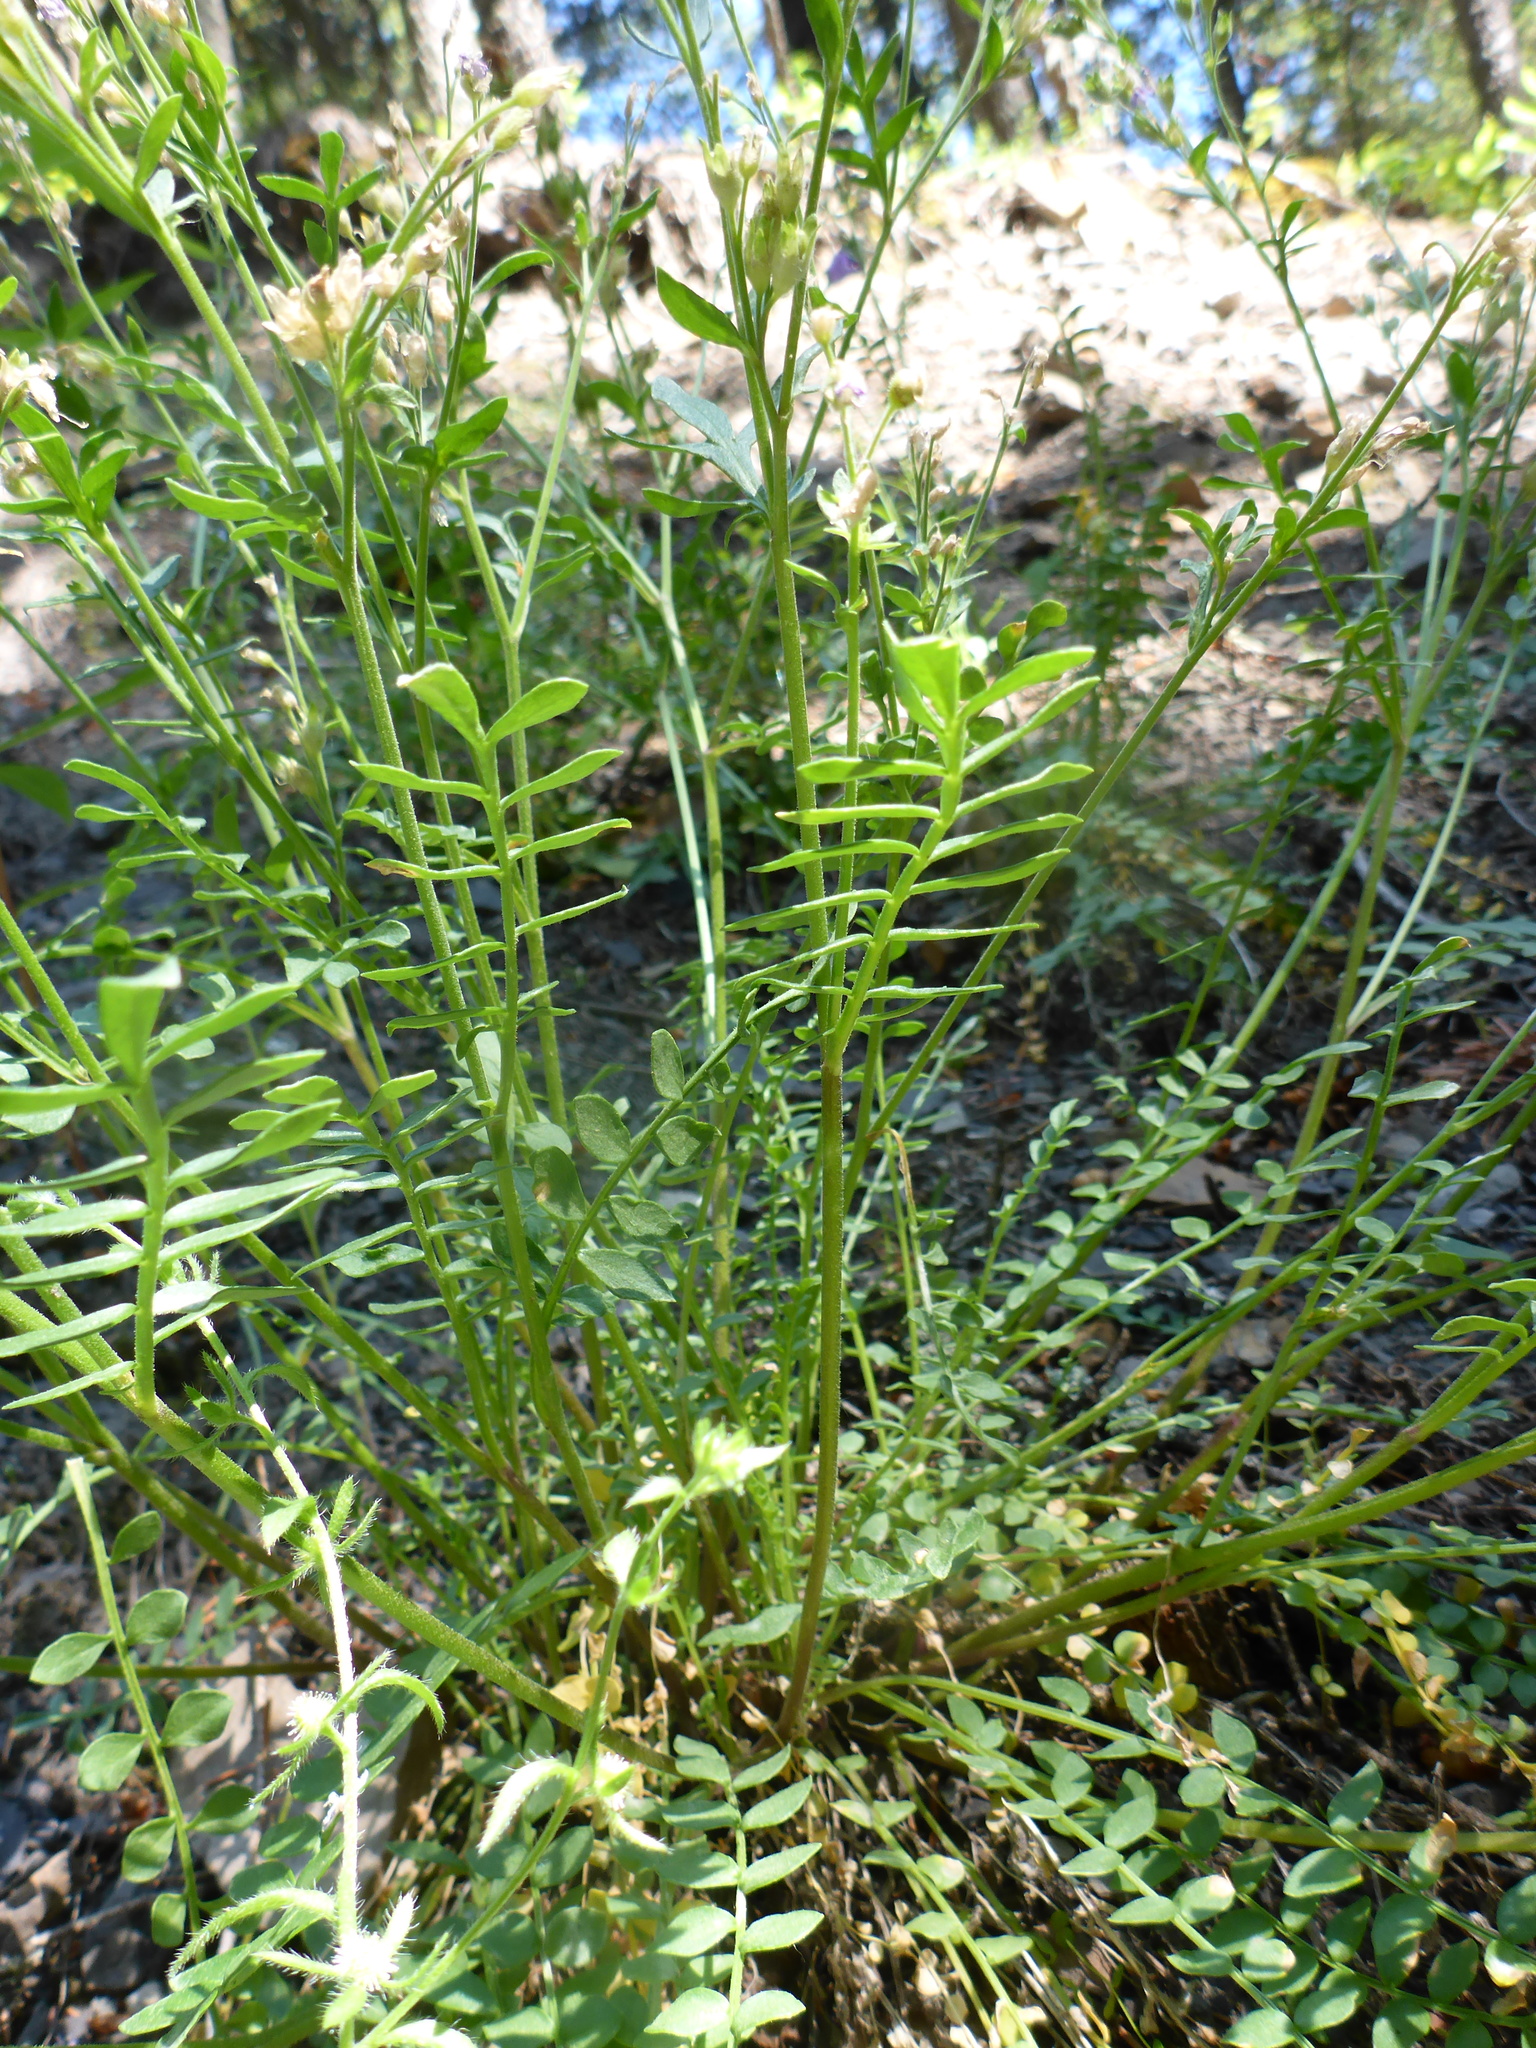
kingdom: Plantae
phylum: Tracheophyta
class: Magnoliopsida
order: Ericales
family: Polemoniaceae
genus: Polemonium
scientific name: Polemonium pulcherrimum
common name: Short jacob's-ladder
